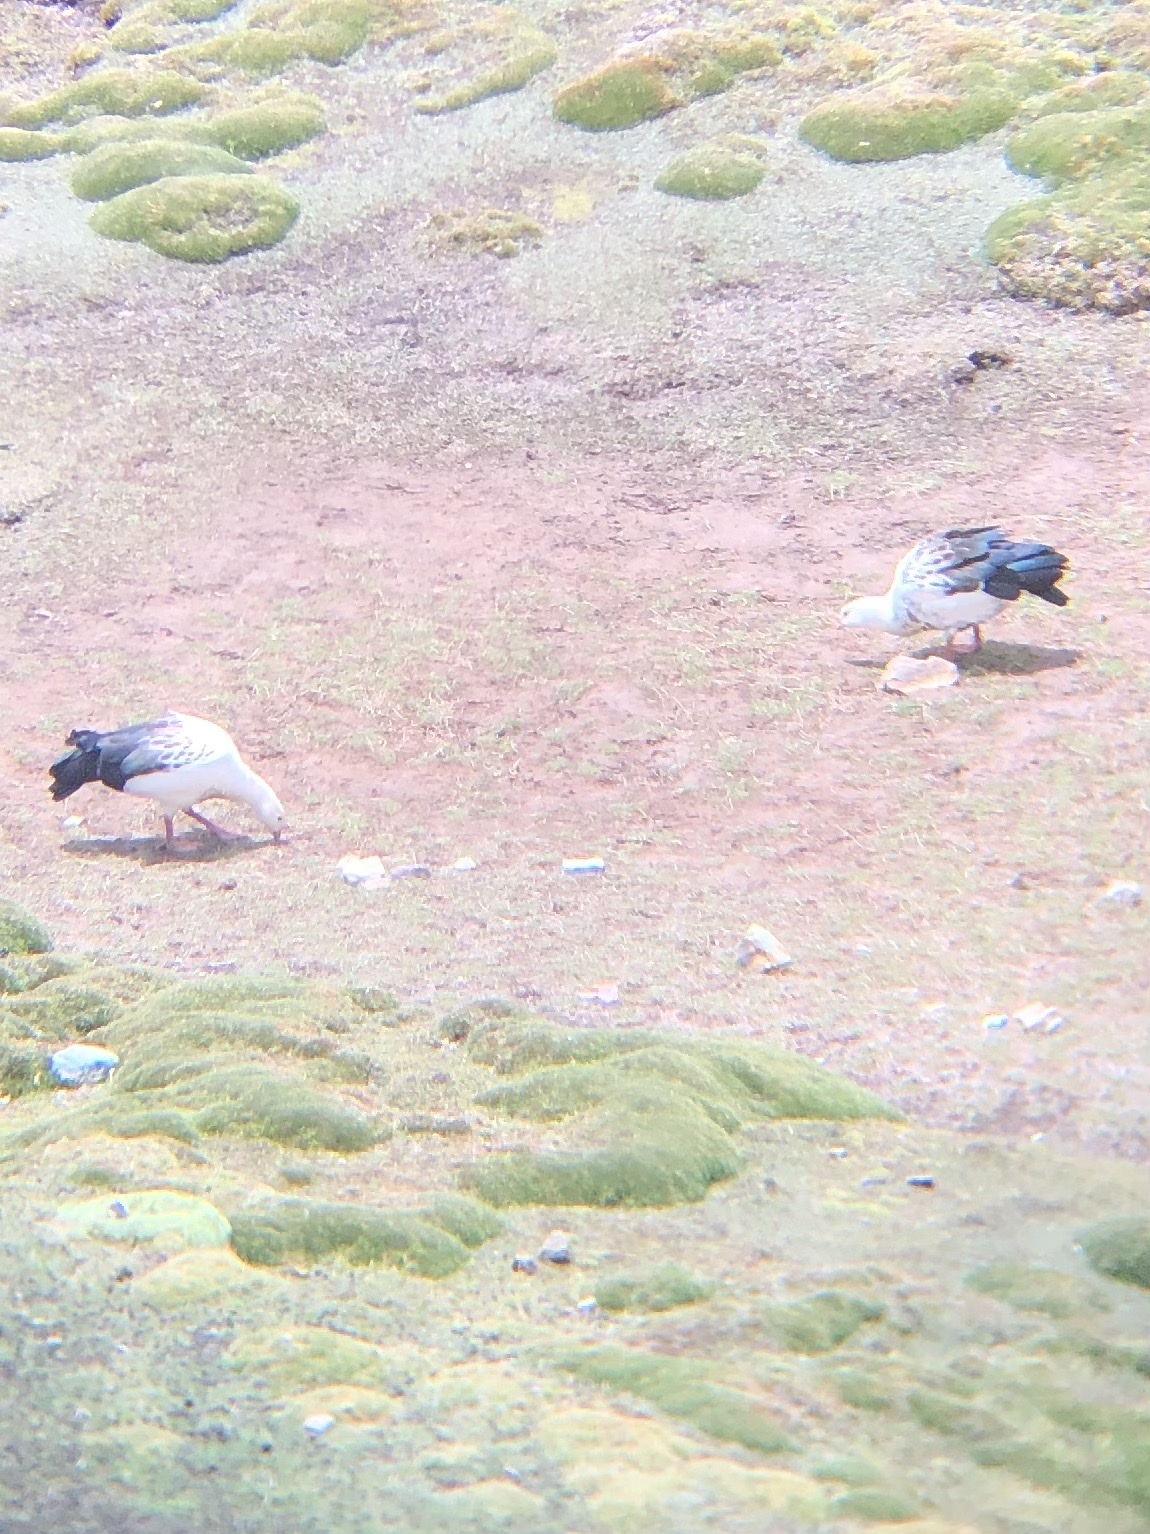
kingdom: Animalia
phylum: Chordata
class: Aves
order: Anseriformes
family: Anatidae
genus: Chloephaga
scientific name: Chloephaga melanoptera
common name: Andean goose
